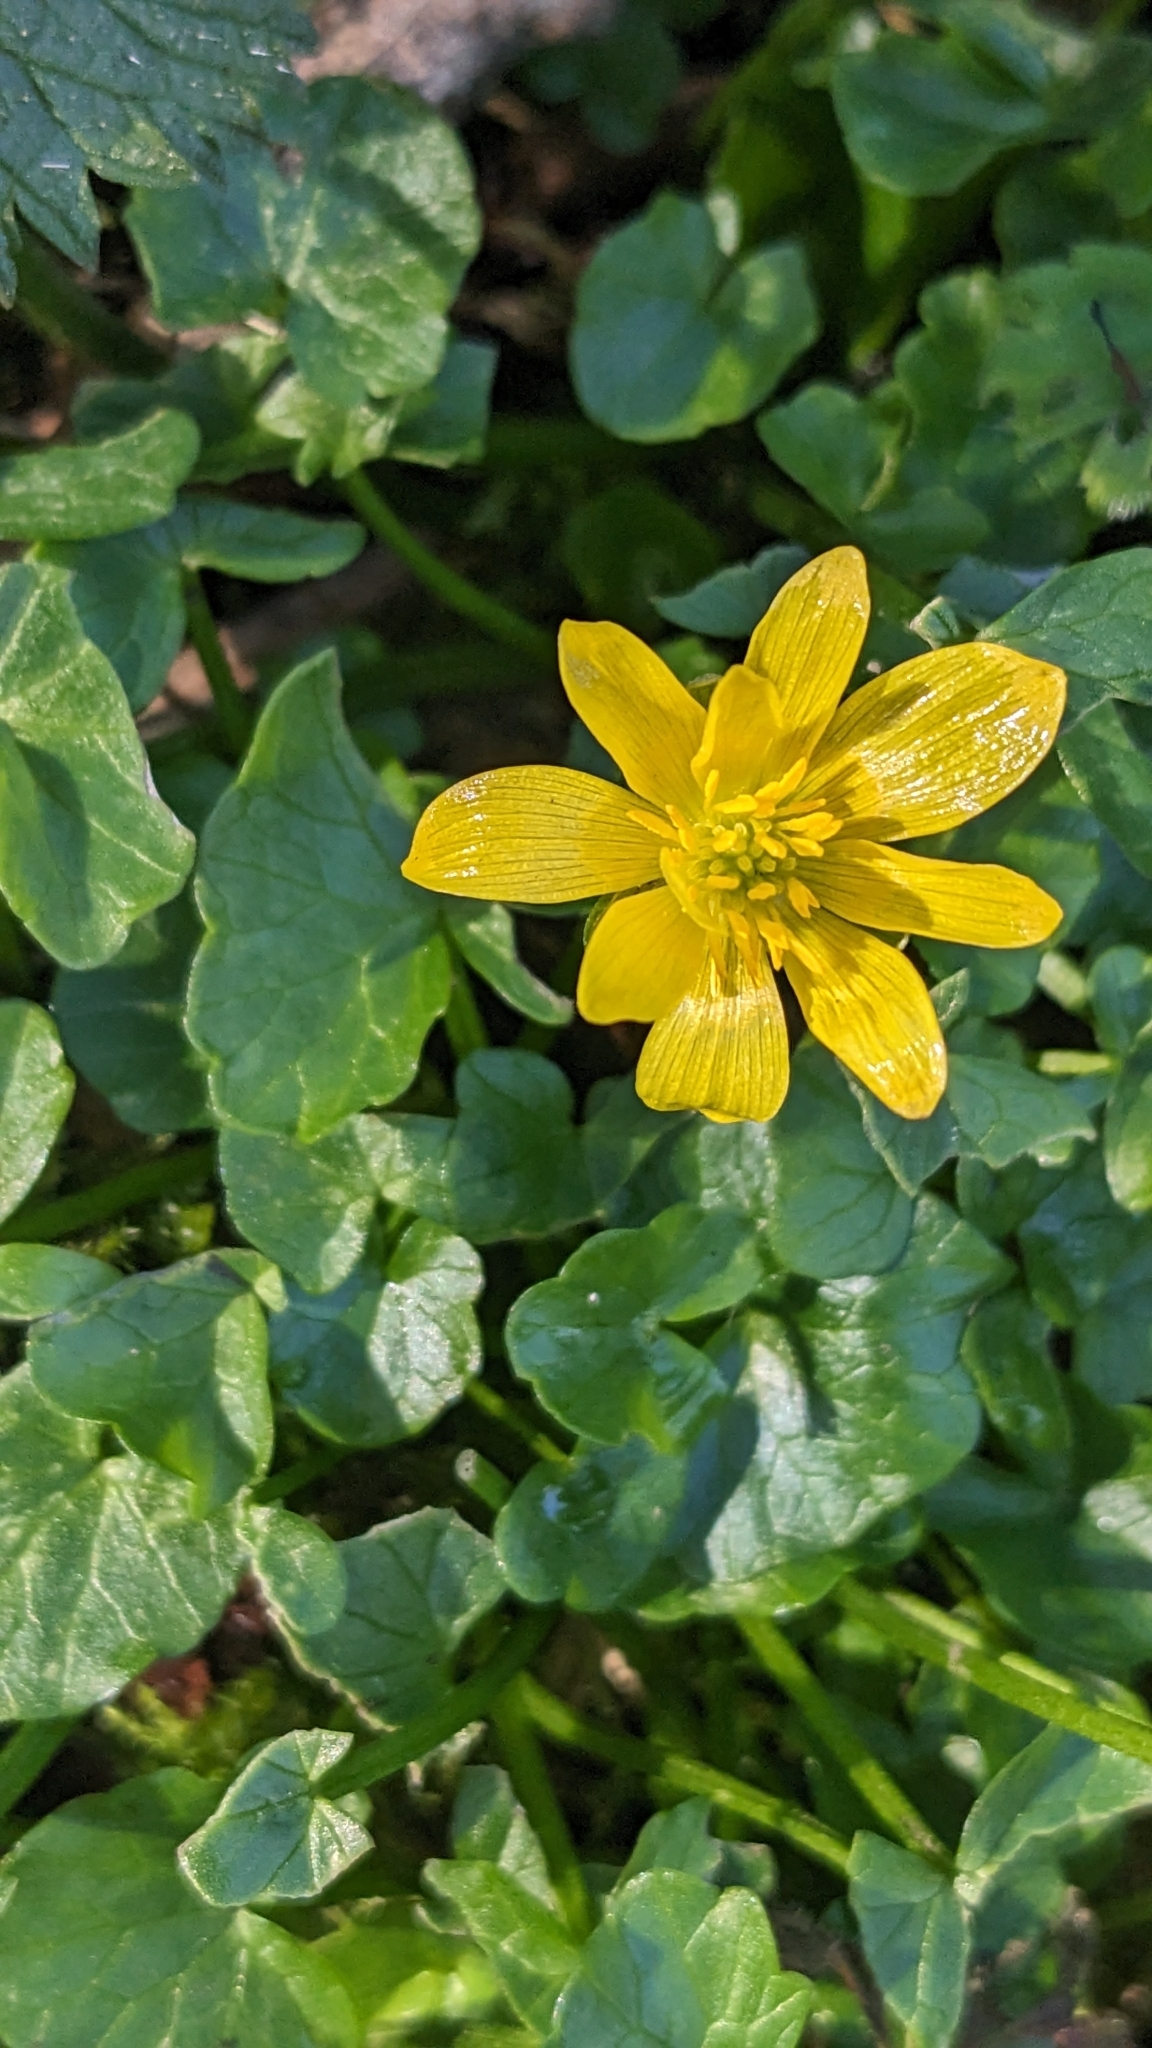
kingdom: Plantae
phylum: Tracheophyta
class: Magnoliopsida
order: Ranunculales
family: Ranunculaceae
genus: Ficaria
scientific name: Ficaria verna
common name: Lesser celandine
